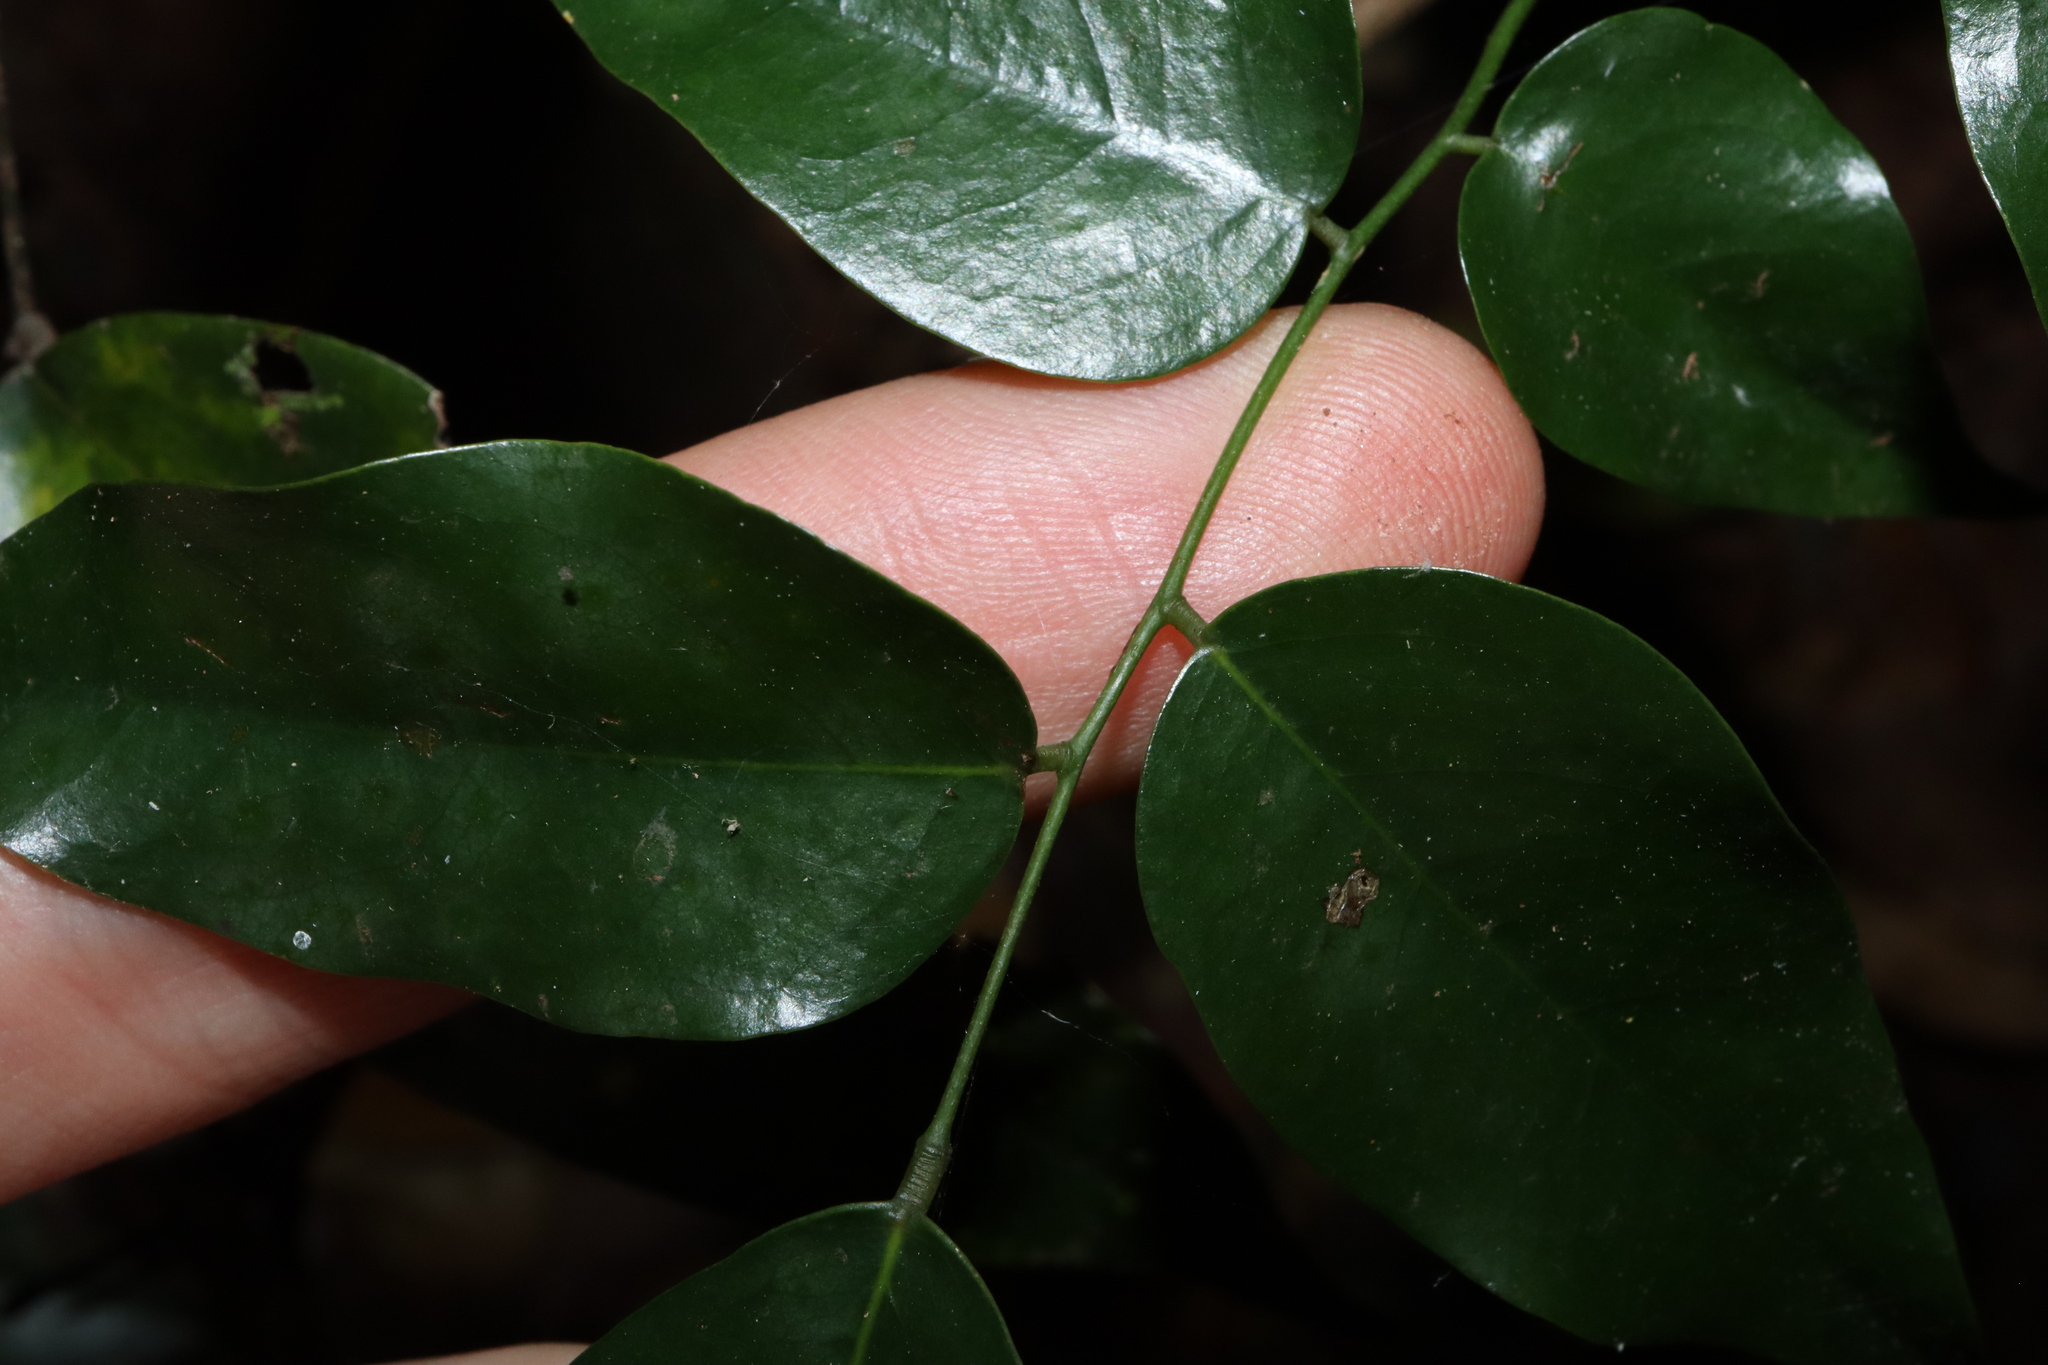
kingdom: Plantae
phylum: Tracheophyta
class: Magnoliopsida
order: Oxalidales
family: Connaraceae
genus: Rourea
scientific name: Rourea brachyandra
